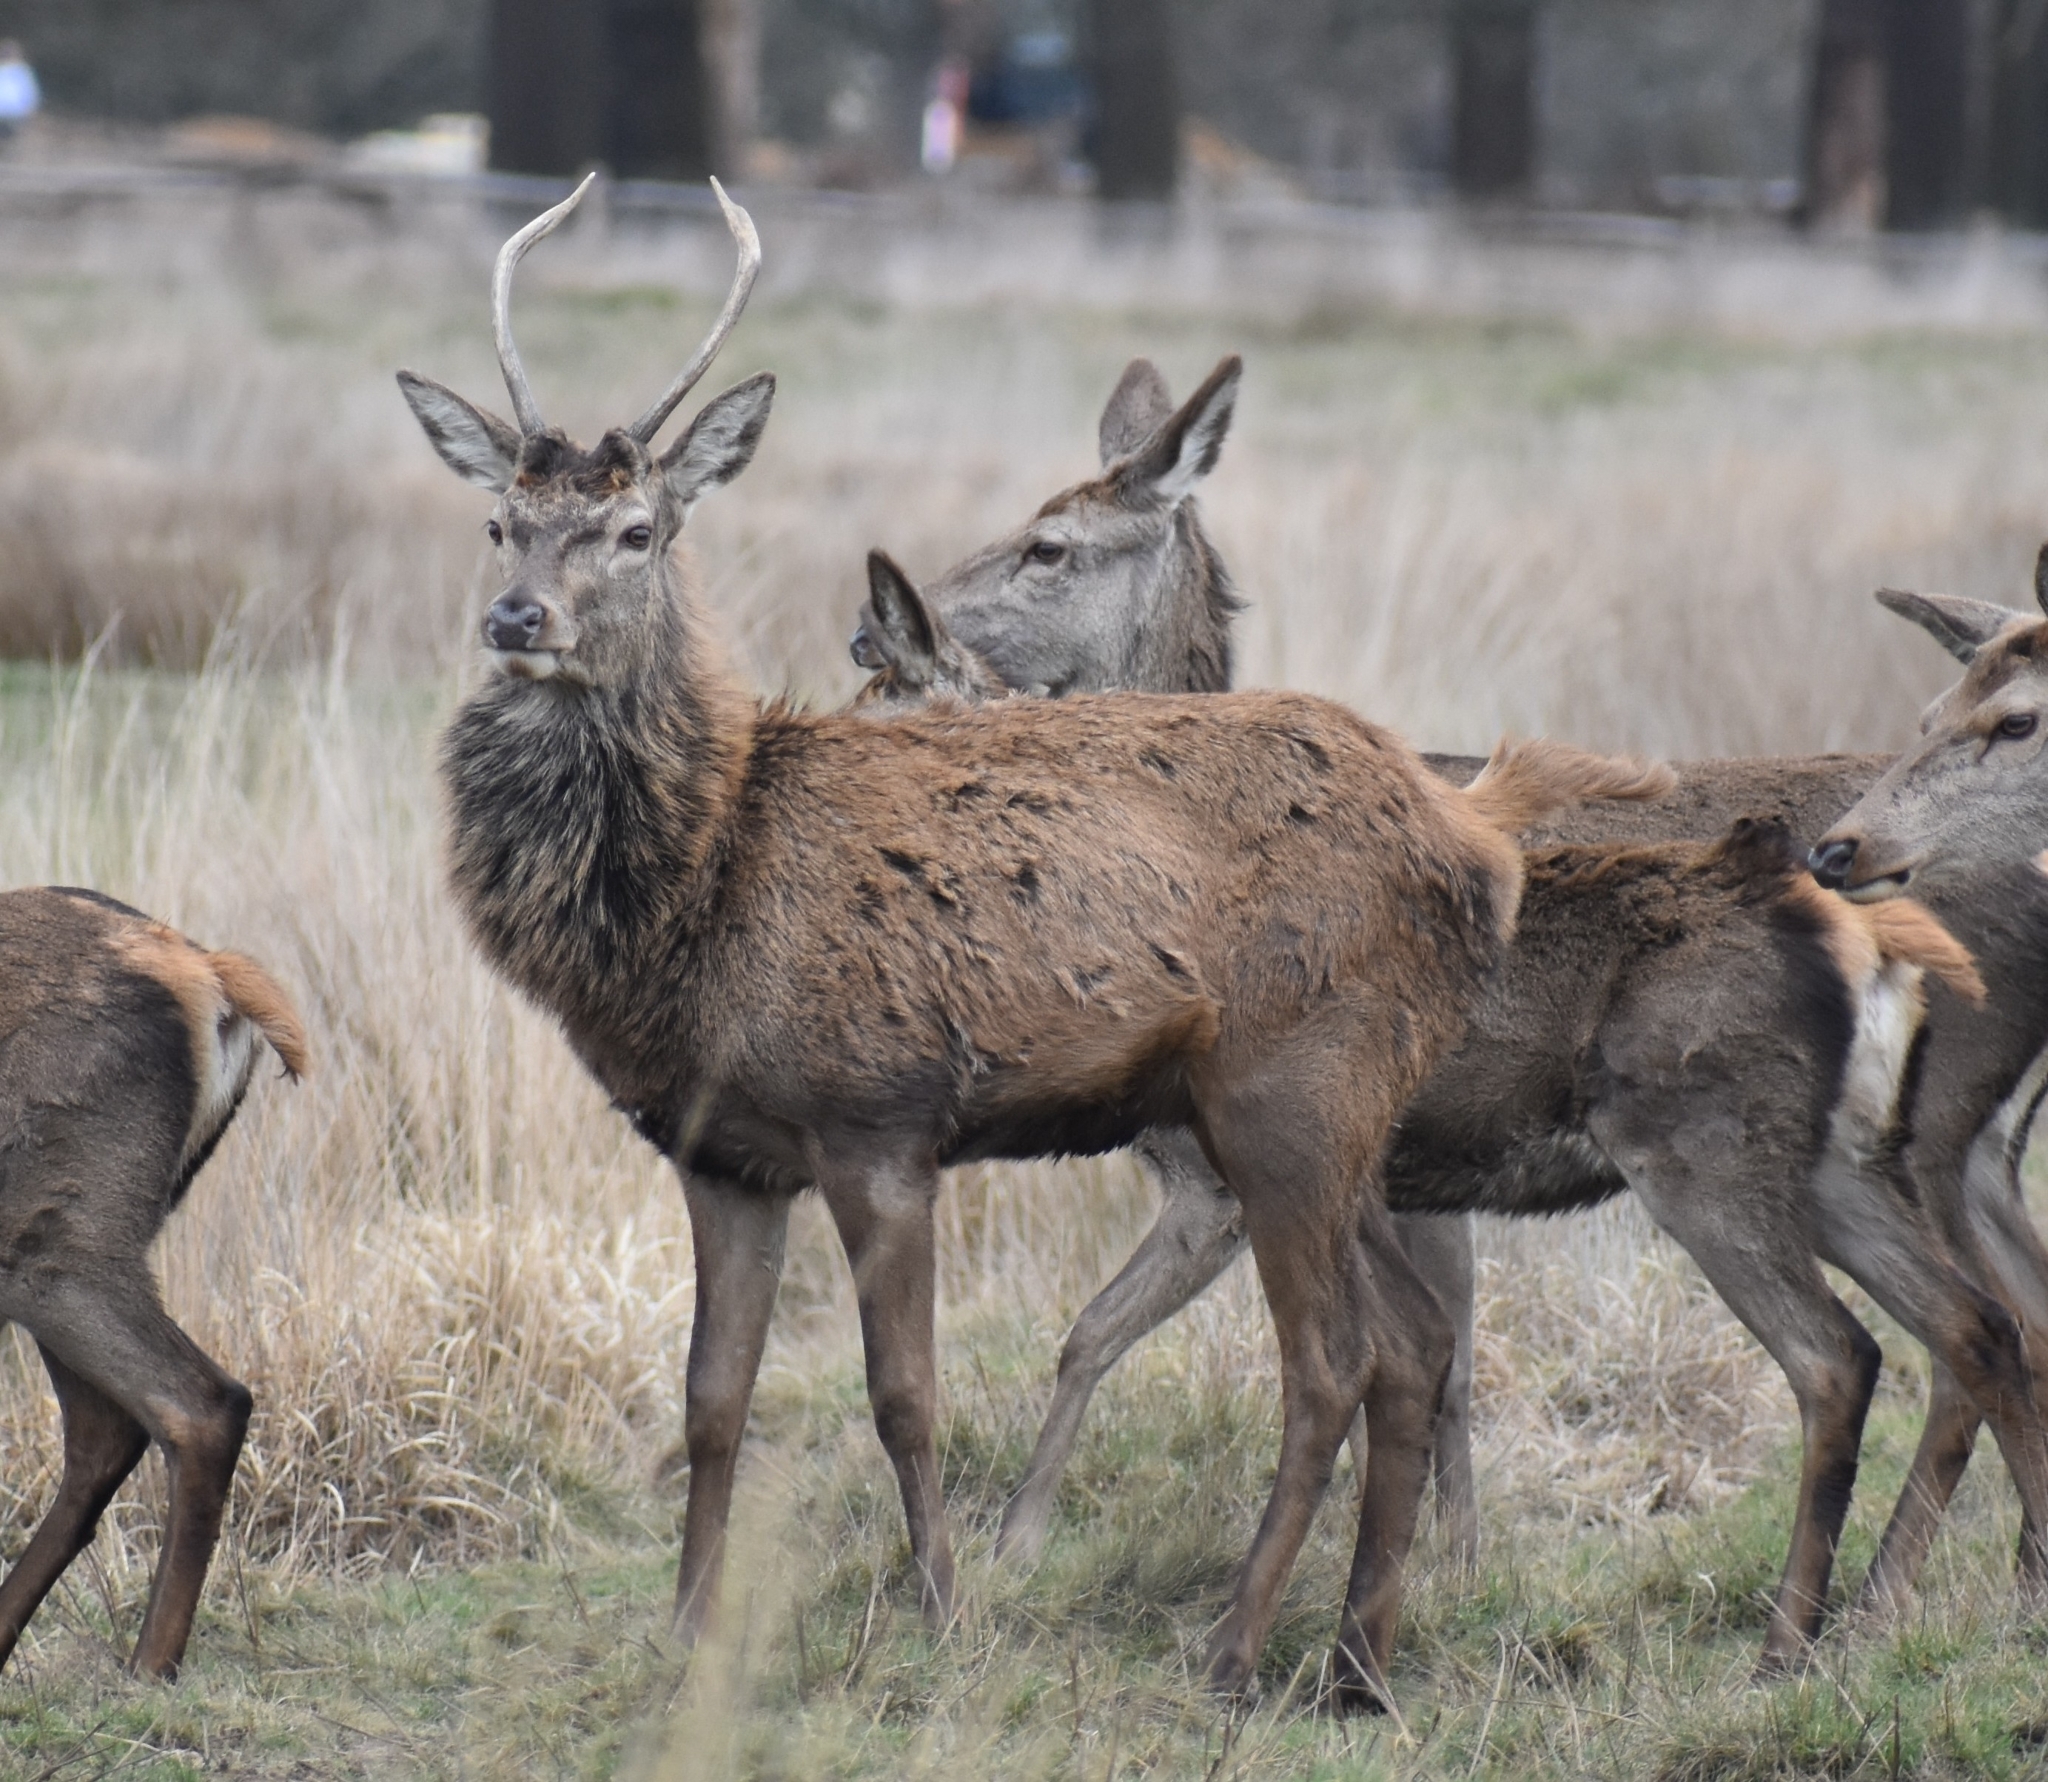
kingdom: Animalia
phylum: Chordata
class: Mammalia
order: Artiodactyla
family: Cervidae
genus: Cervus
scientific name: Cervus elaphus
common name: Red deer
